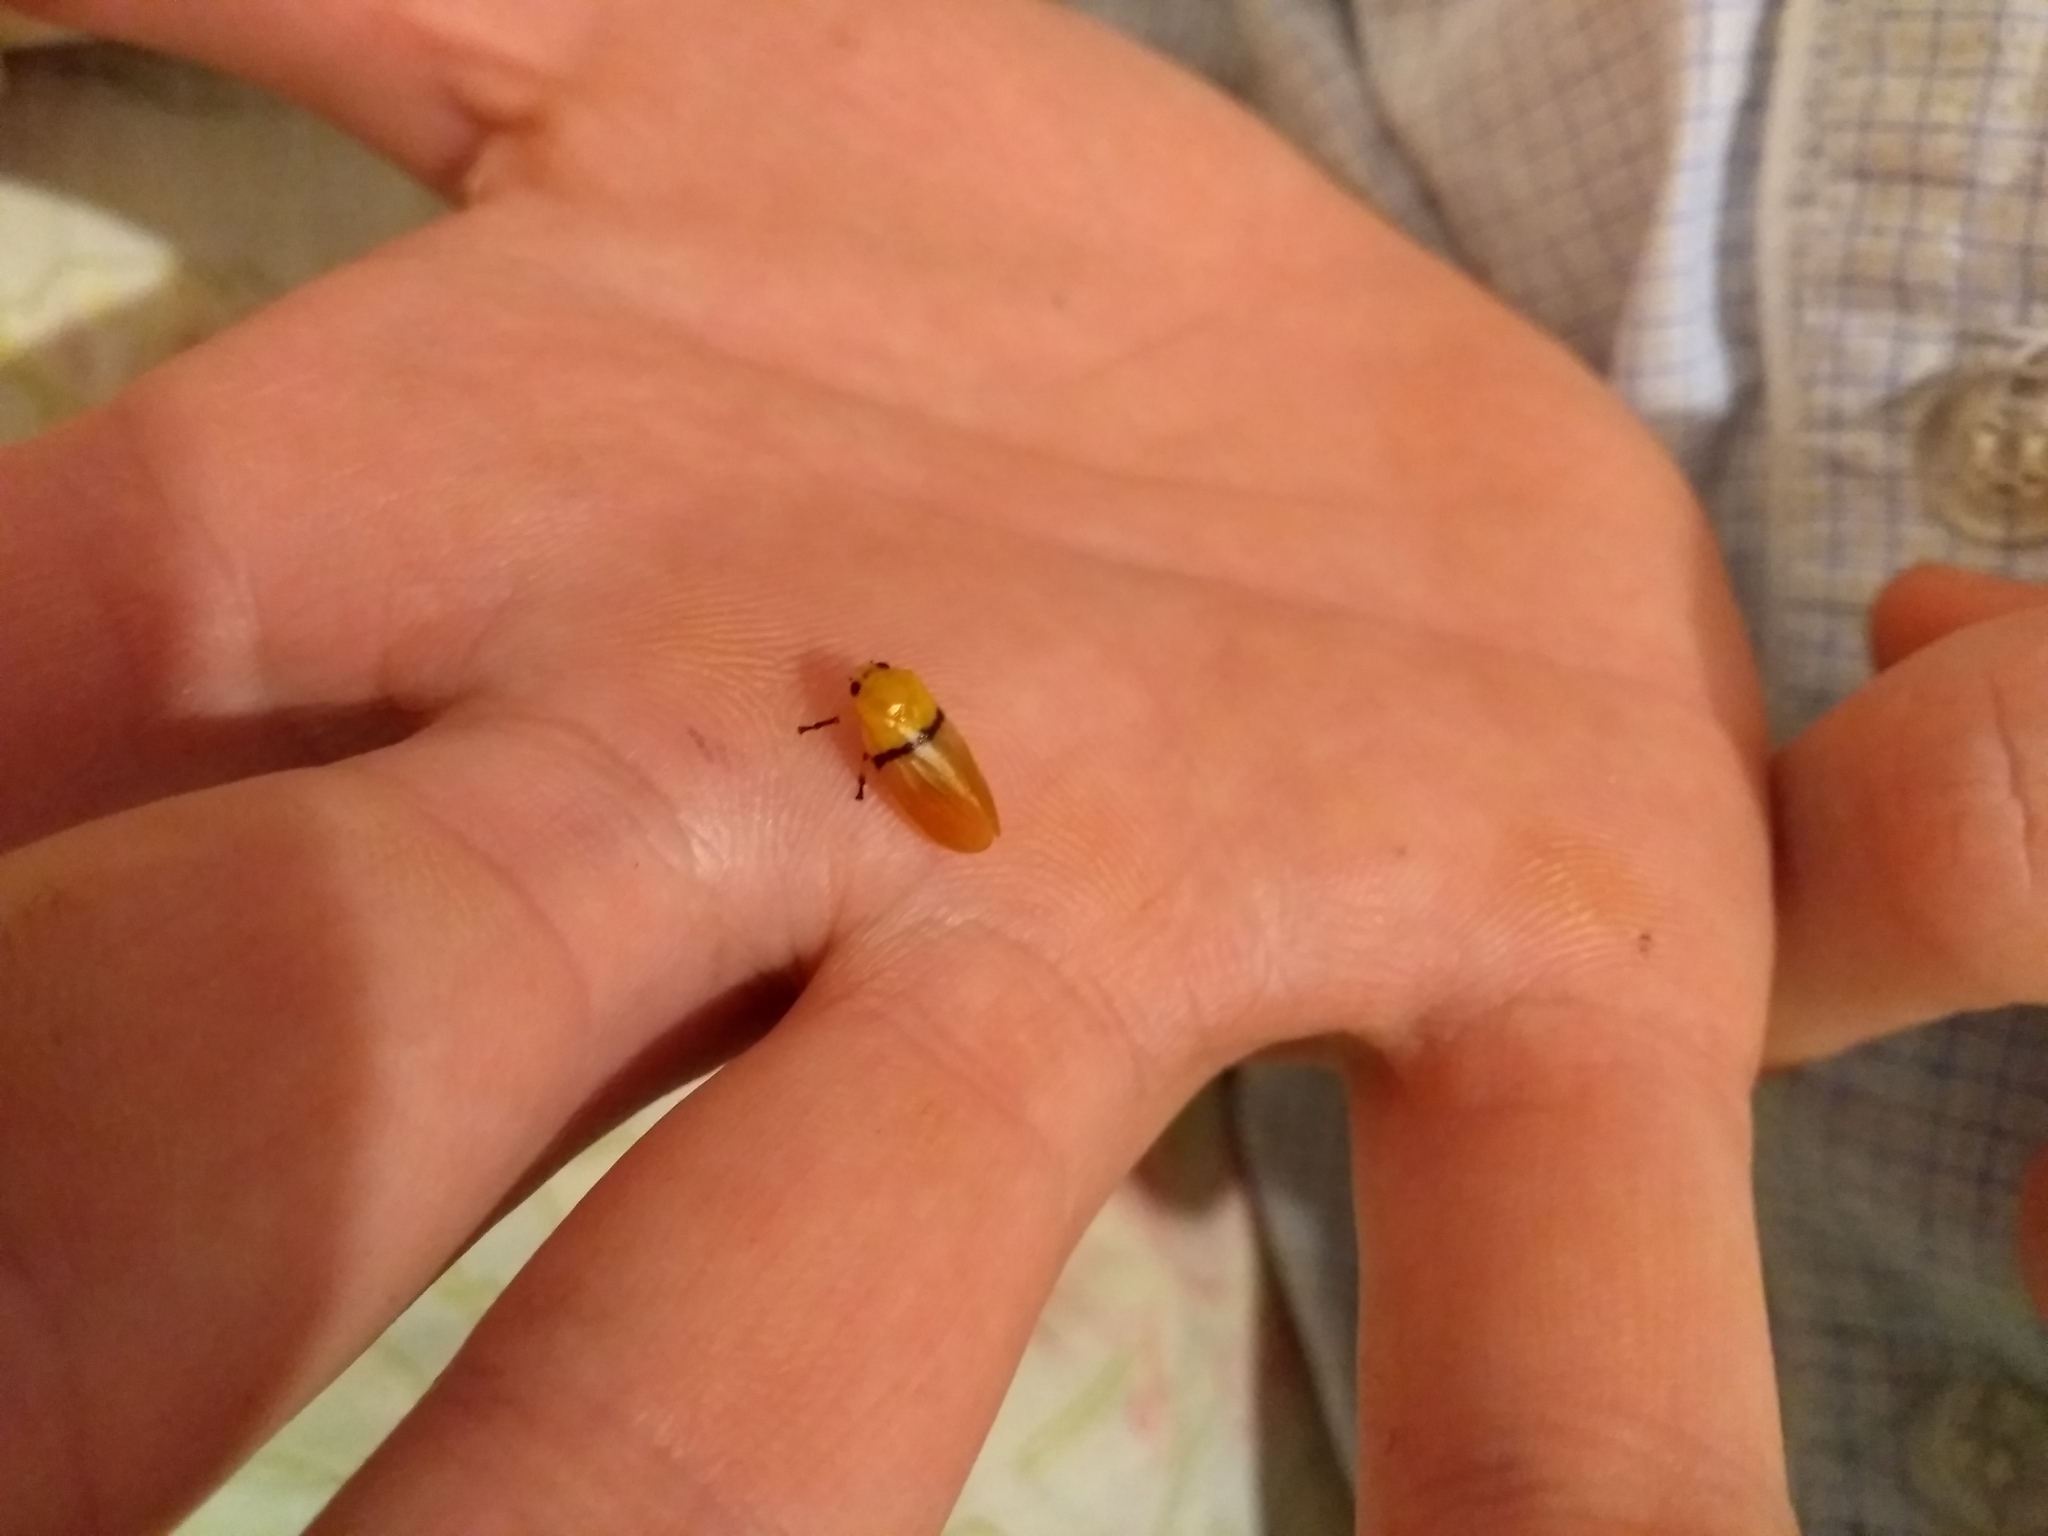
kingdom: Animalia
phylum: Arthropoda
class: Insecta
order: Hemiptera
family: Cercopidae
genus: Monecphora
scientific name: Monecphora cingulata
